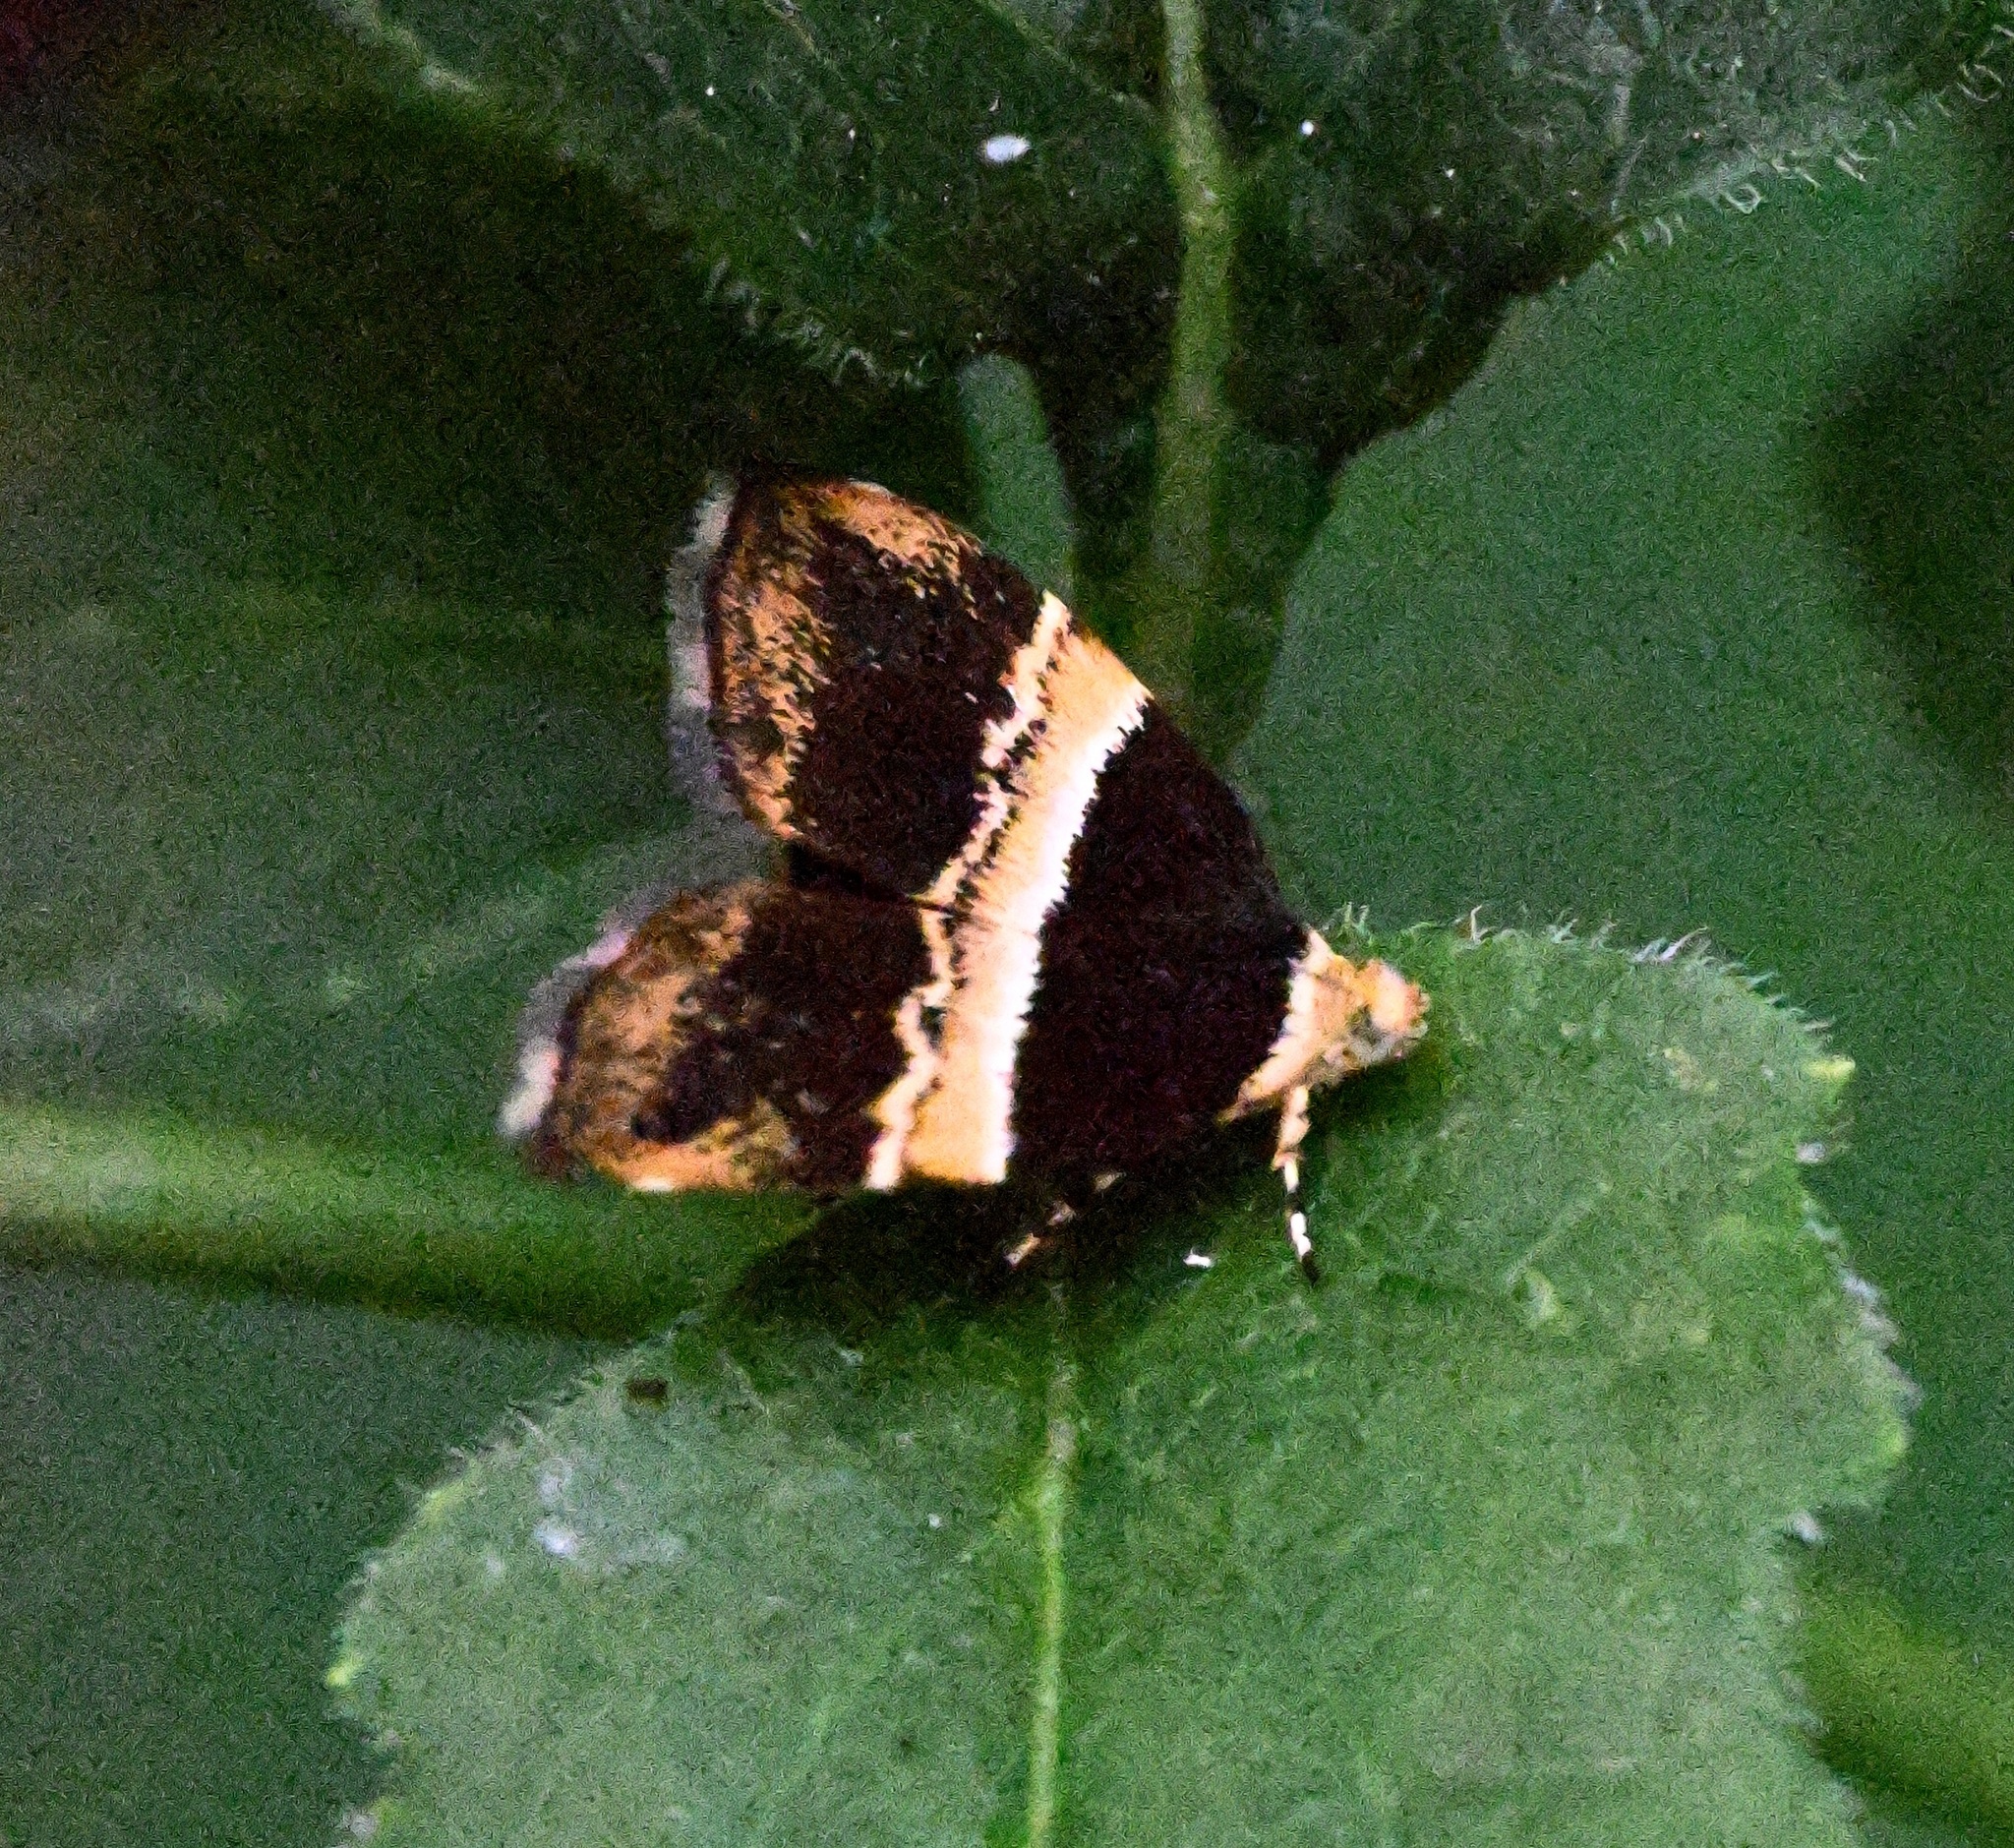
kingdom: Animalia
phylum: Arthropoda
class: Insecta
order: Lepidoptera
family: Choreutidae
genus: Choreutis
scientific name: Choreutis basalis
